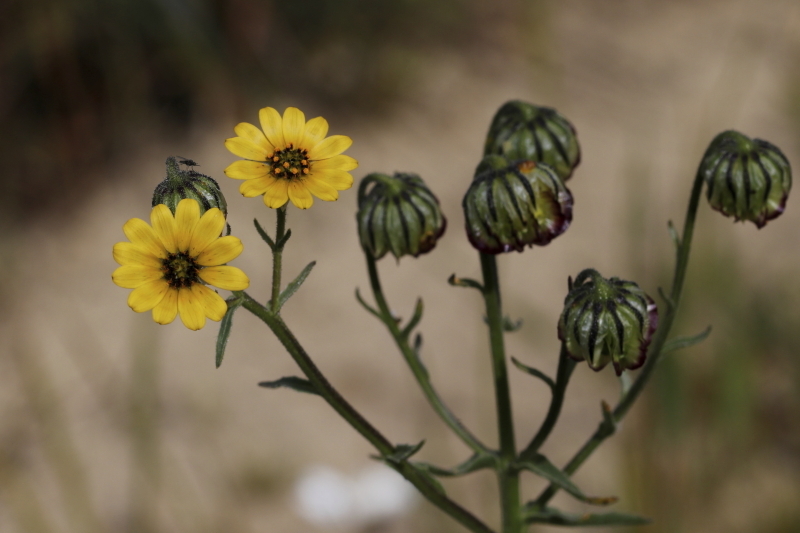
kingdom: Plantae
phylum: Tracheophyta
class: Magnoliopsida
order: Asterales
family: Asteraceae
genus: Osteospermum
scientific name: Osteospermum monstrosum
